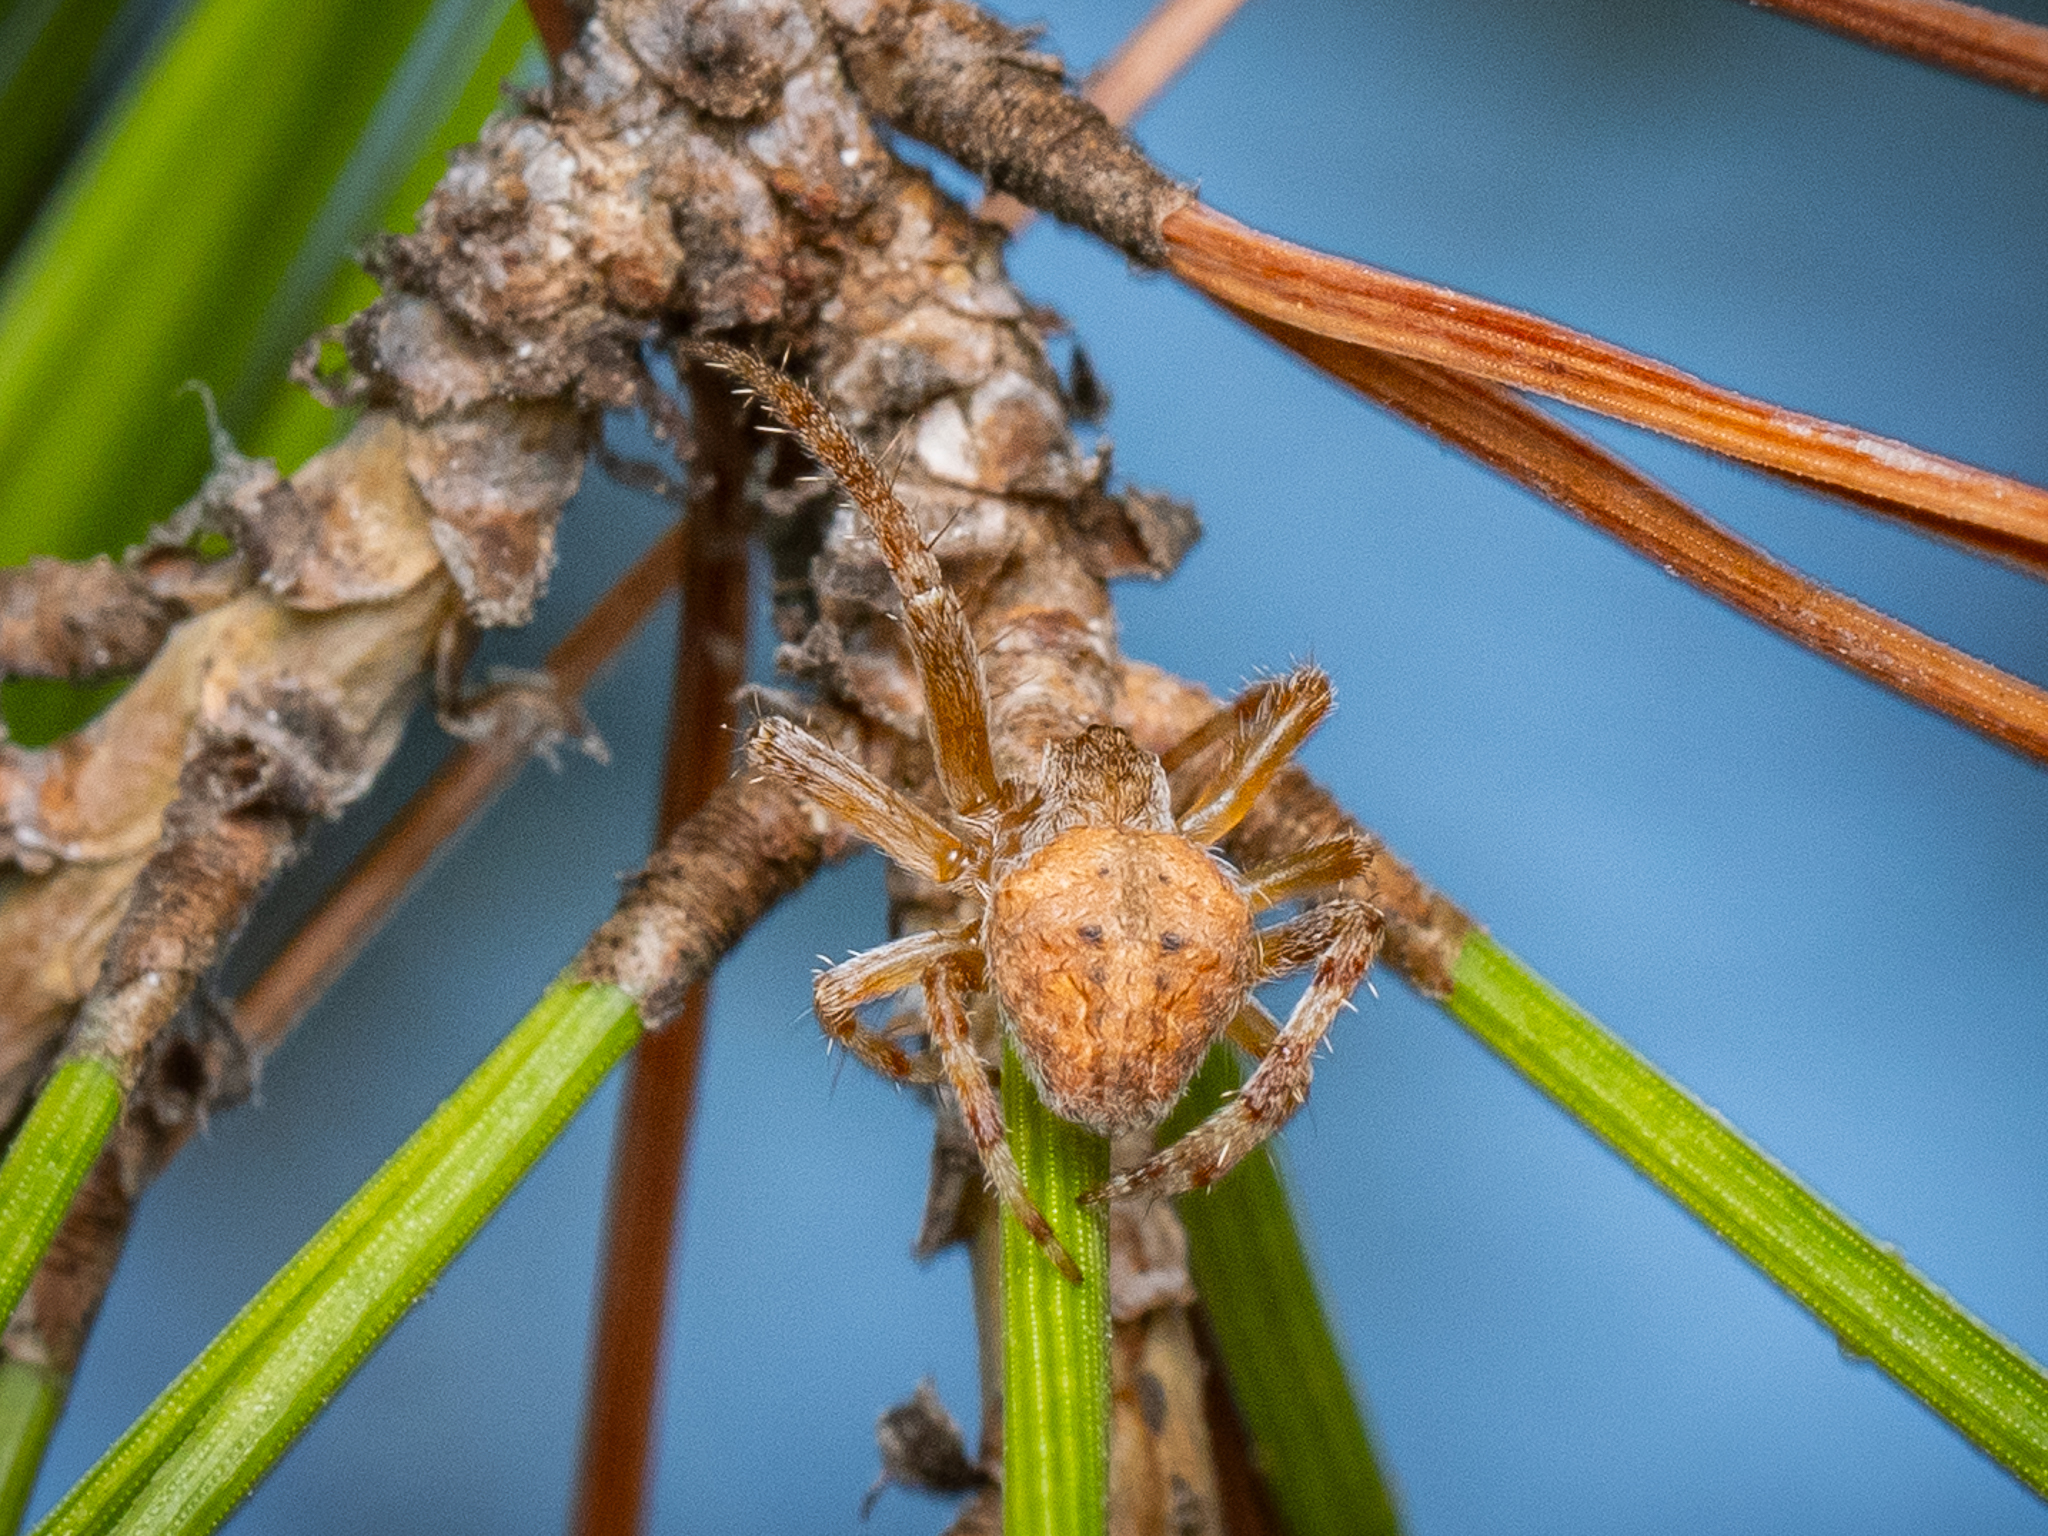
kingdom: Animalia
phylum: Arthropoda
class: Arachnida
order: Araneae
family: Araneidae
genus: Neoscona
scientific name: Neoscona subfusca
